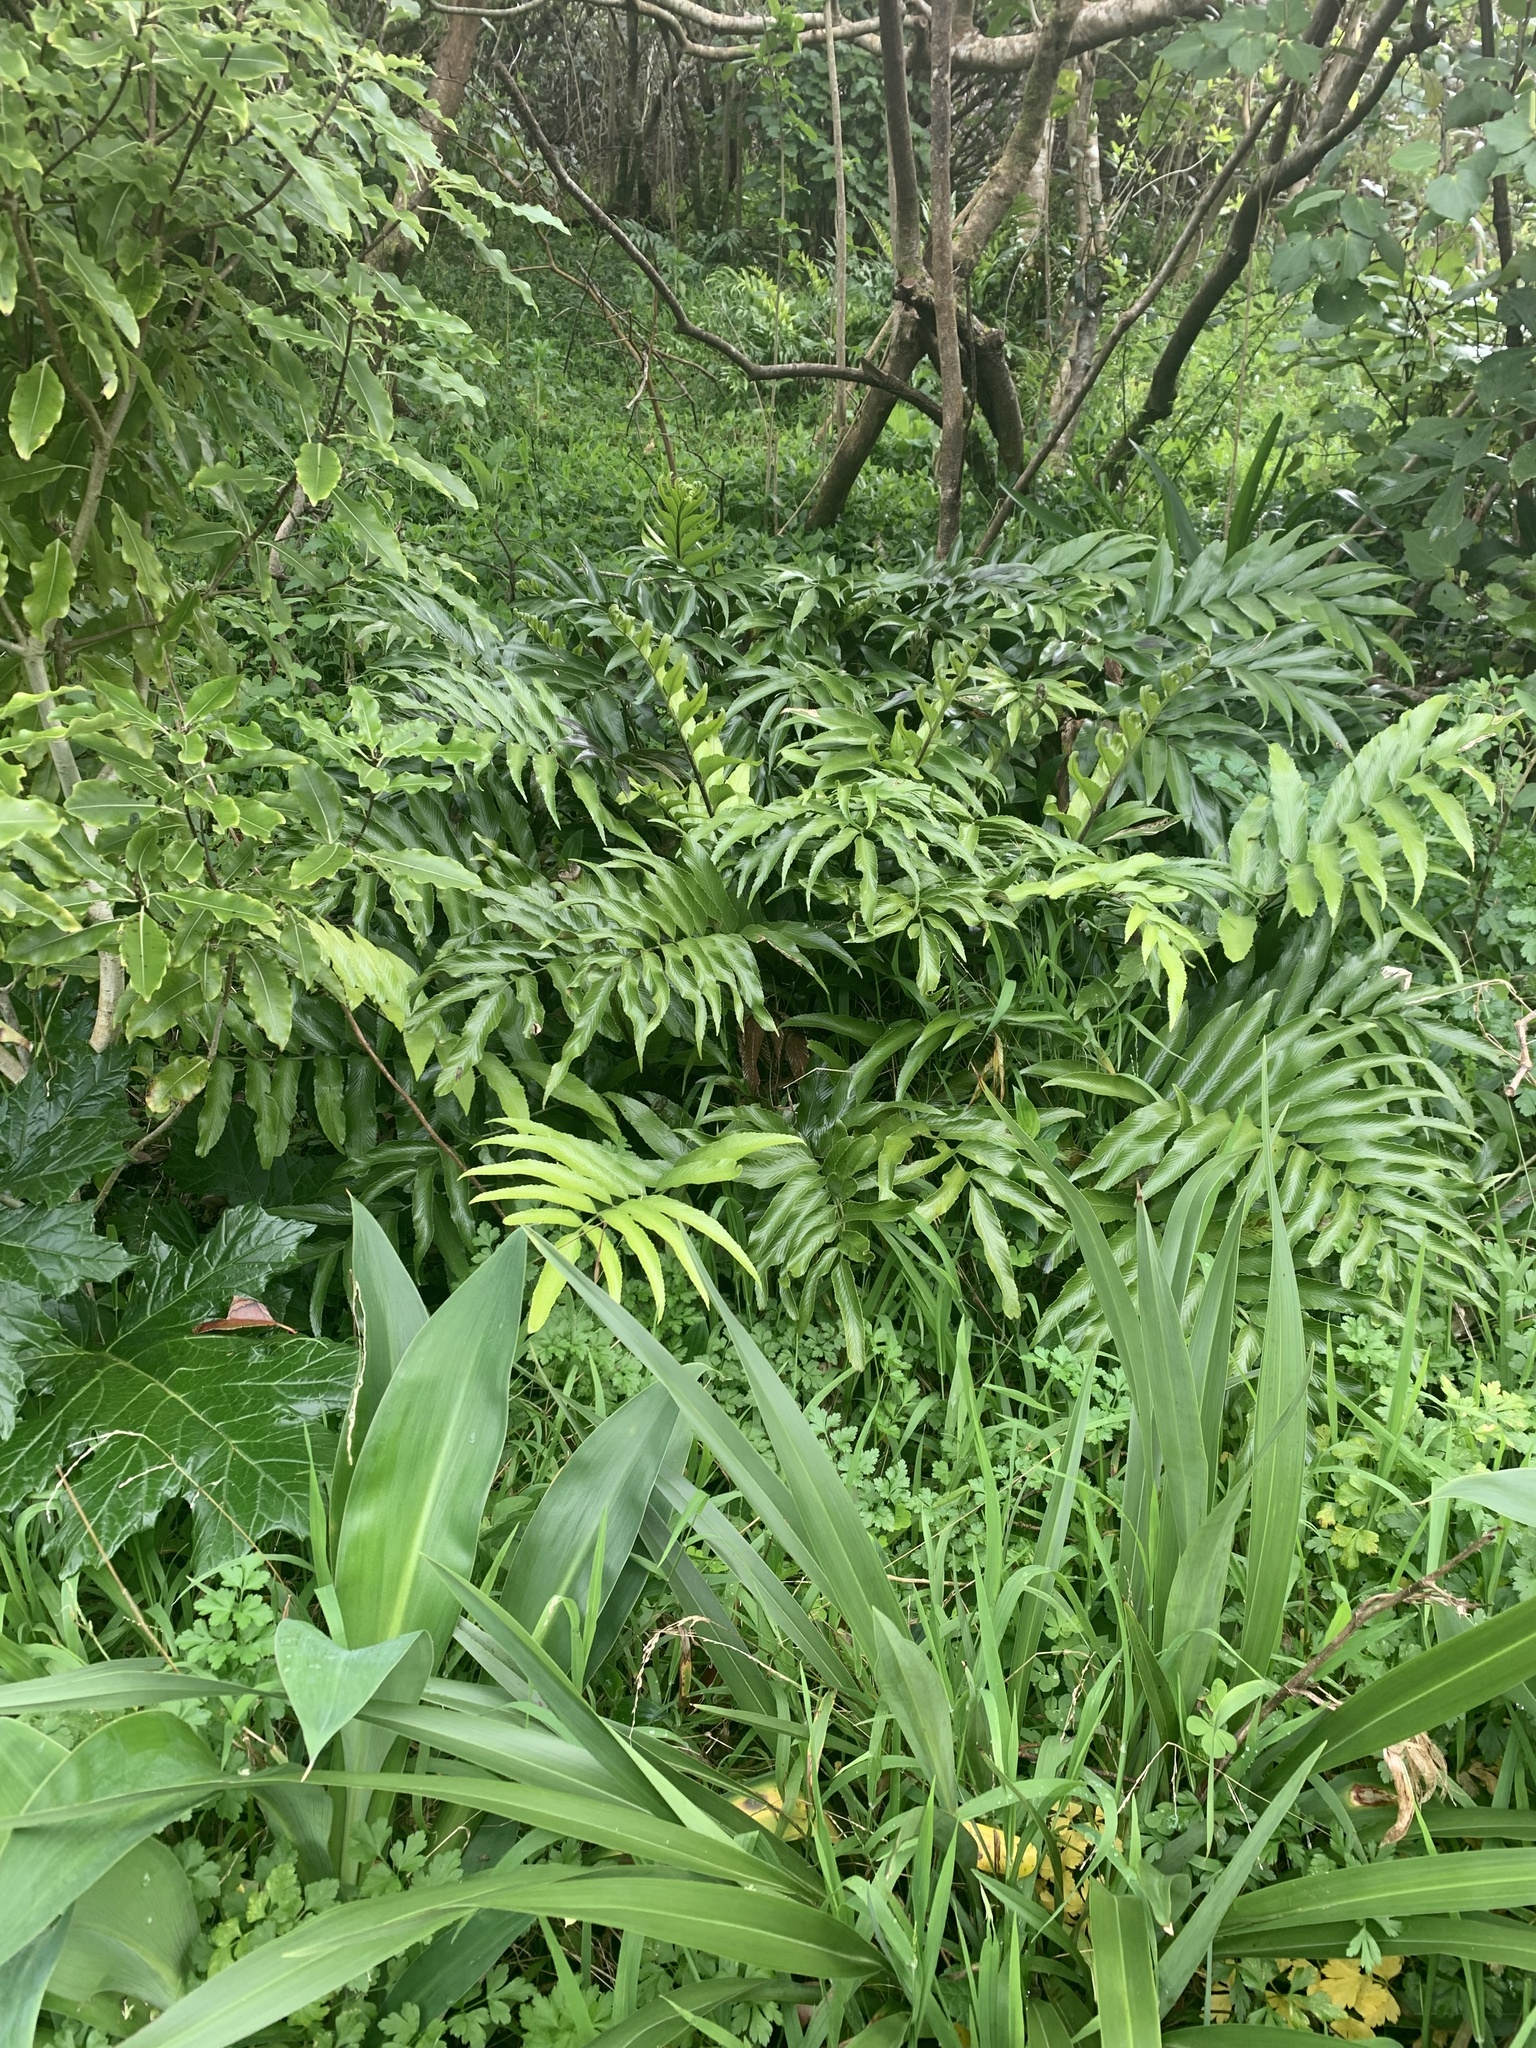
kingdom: Plantae
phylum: Tracheophyta
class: Polypodiopsida
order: Polypodiales
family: Aspleniaceae
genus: Asplenium
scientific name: Asplenium oblongifolium
